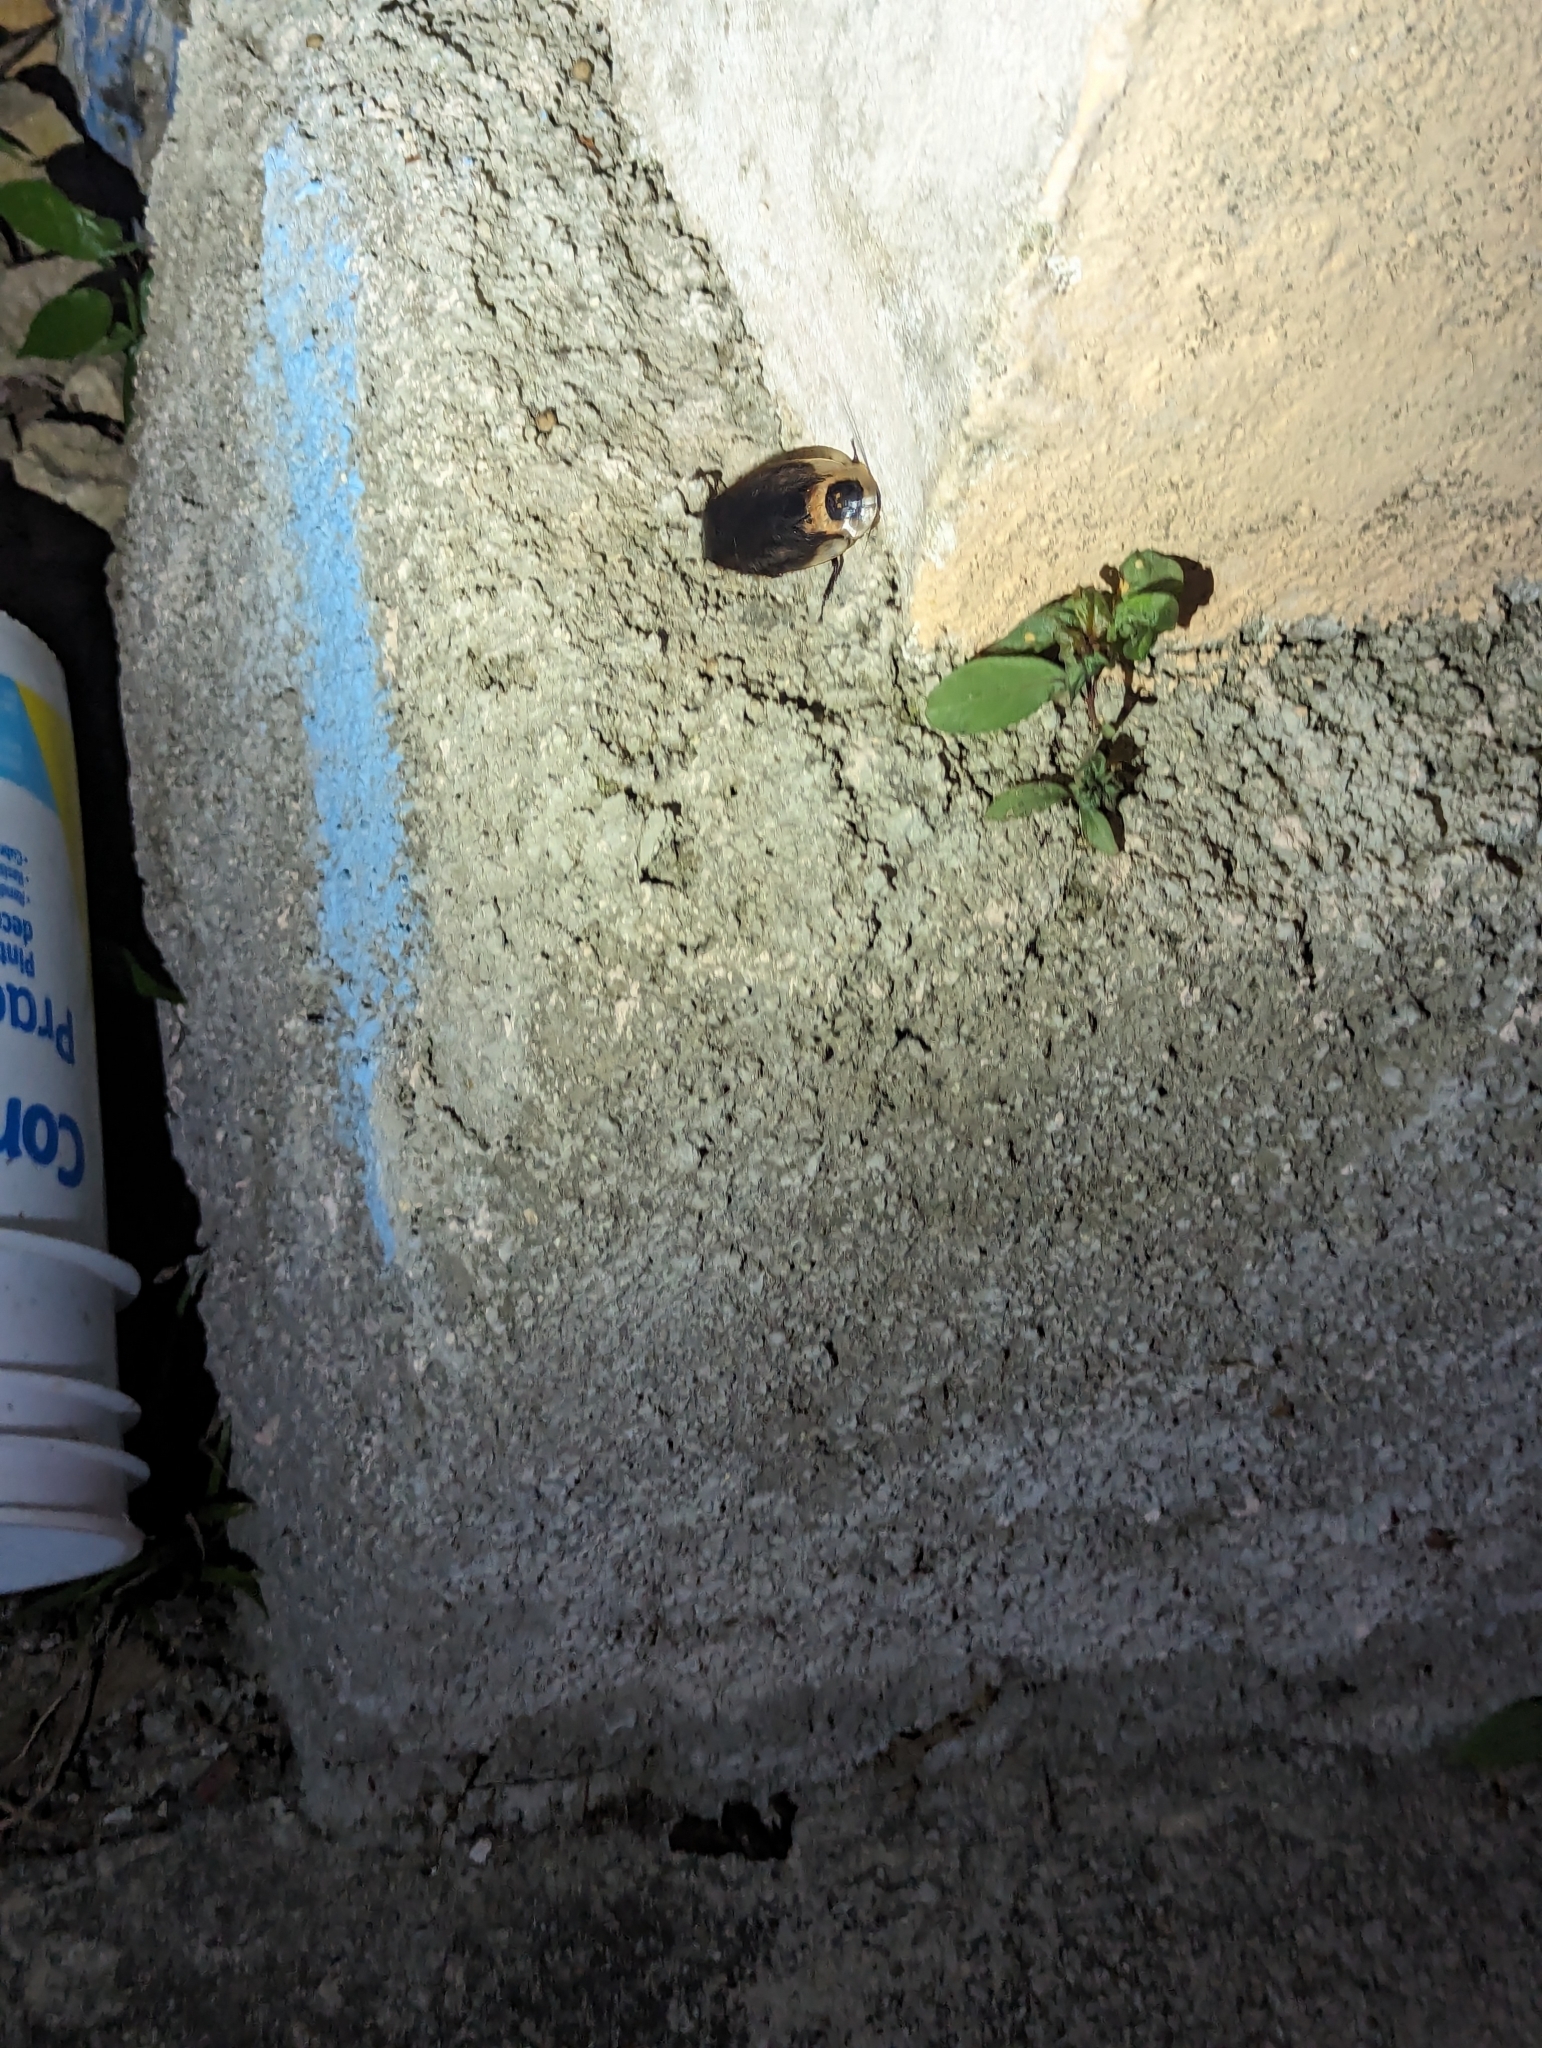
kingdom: Animalia
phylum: Arthropoda
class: Insecta
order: Blattodea
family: Blaberidae
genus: Blaberus
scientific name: Blaberus craniifer
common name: Death's head cockroach
